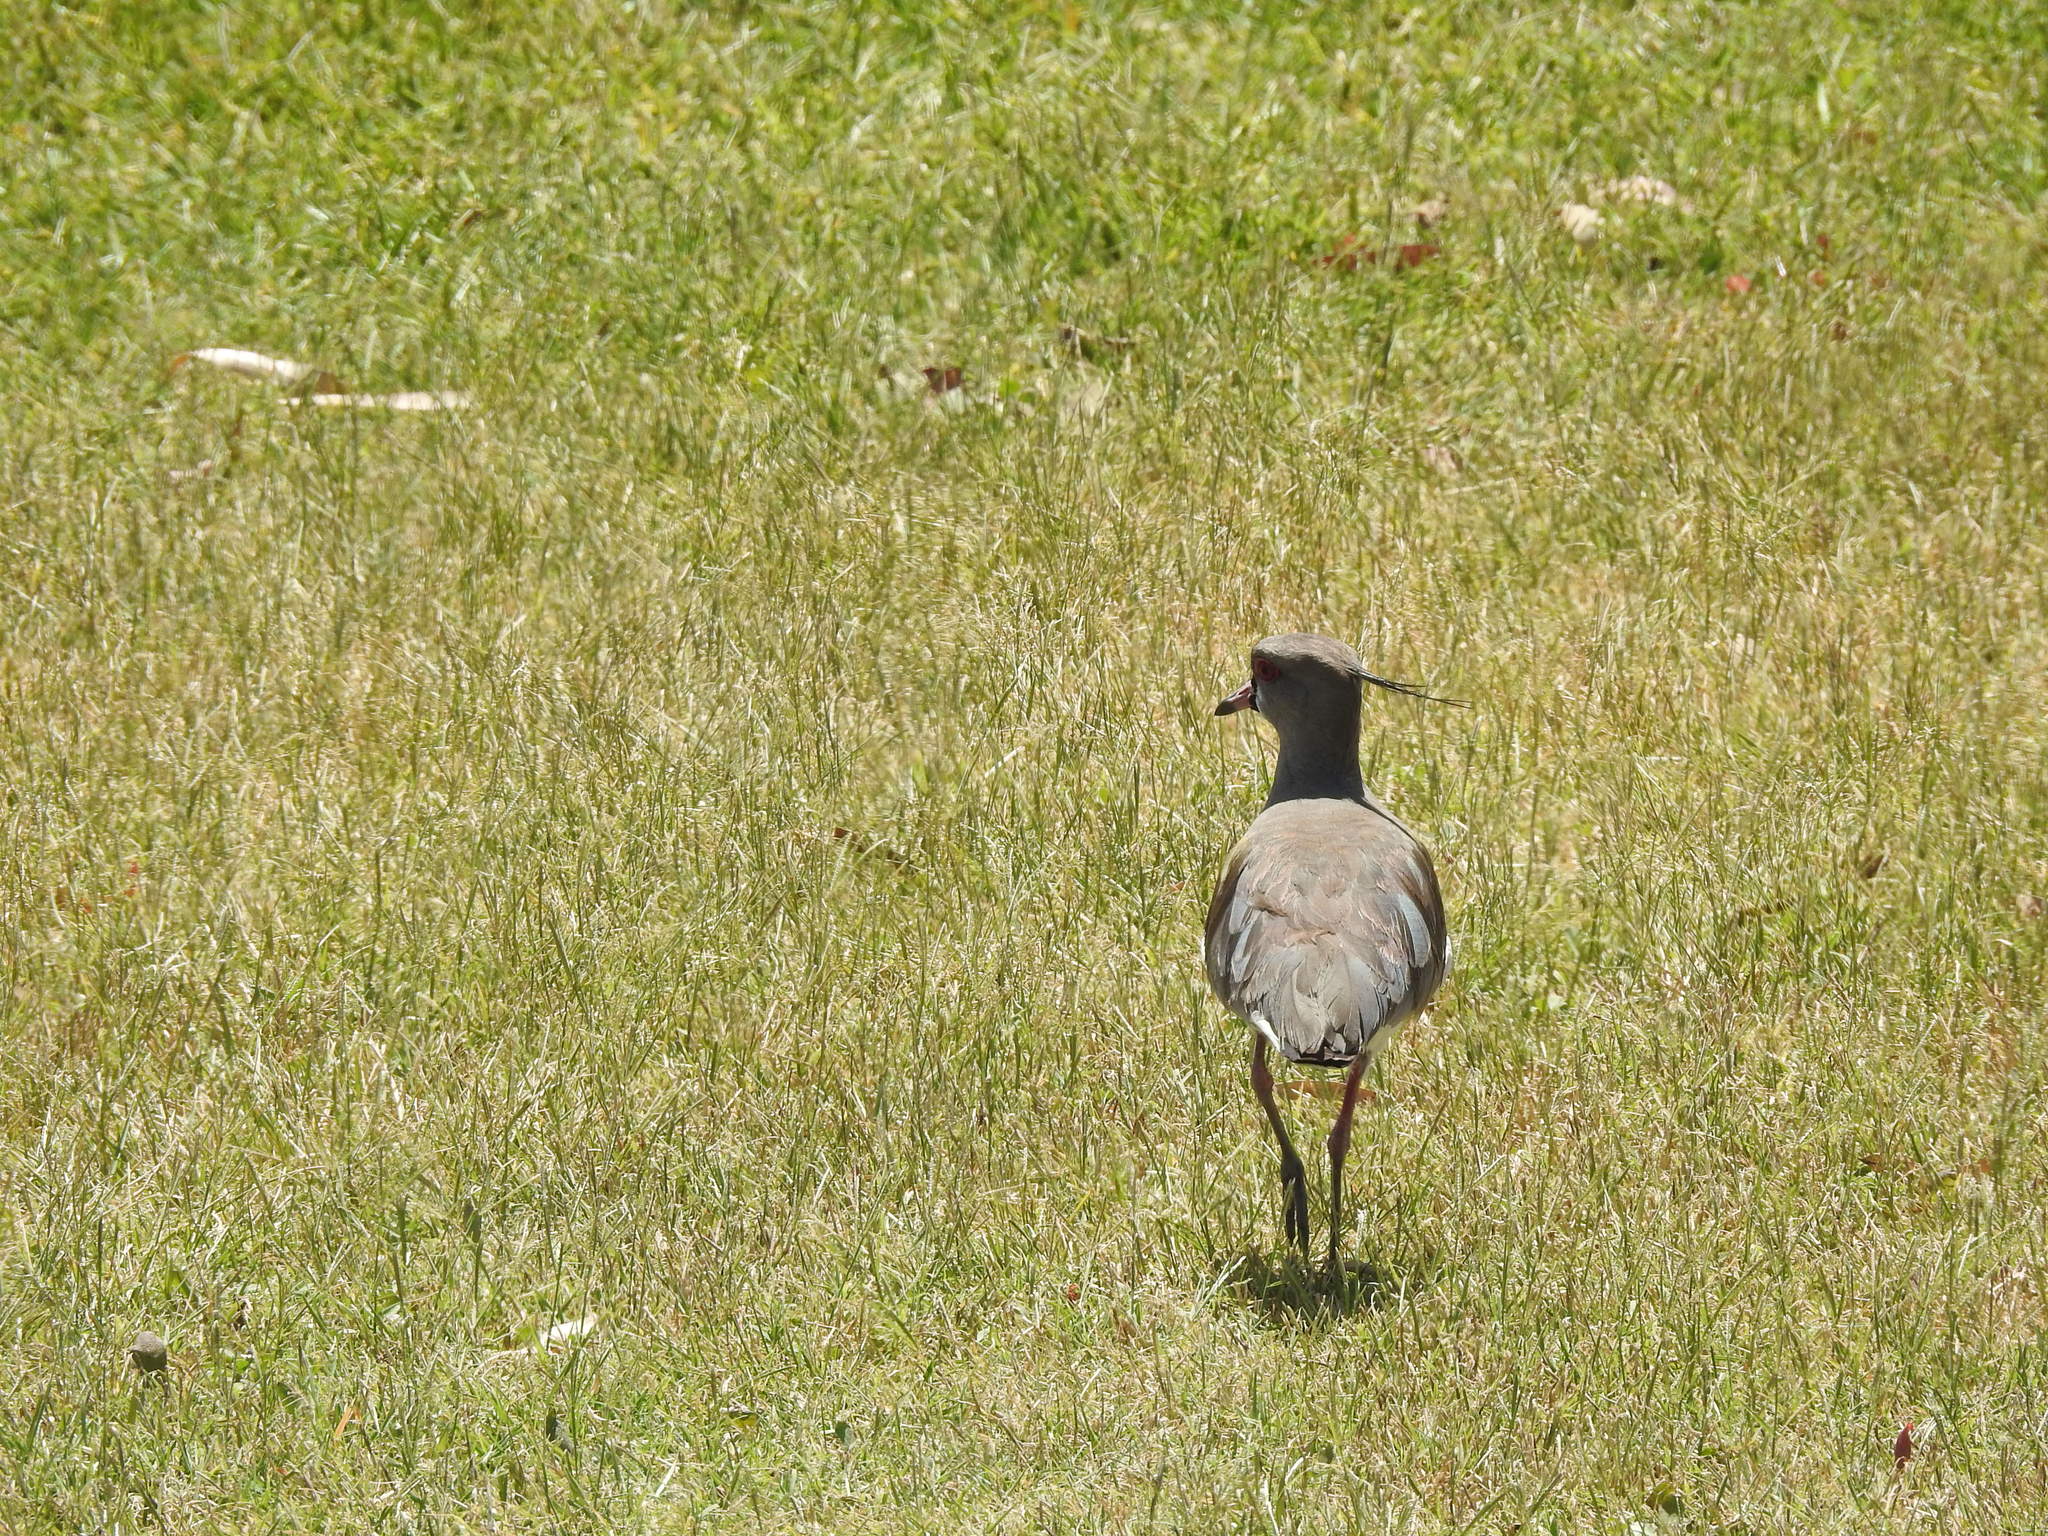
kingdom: Animalia
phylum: Chordata
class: Aves
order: Charadriiformes
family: Charadriidae
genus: Vanellus
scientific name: Vanellus chilensis
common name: Southern lapwing
